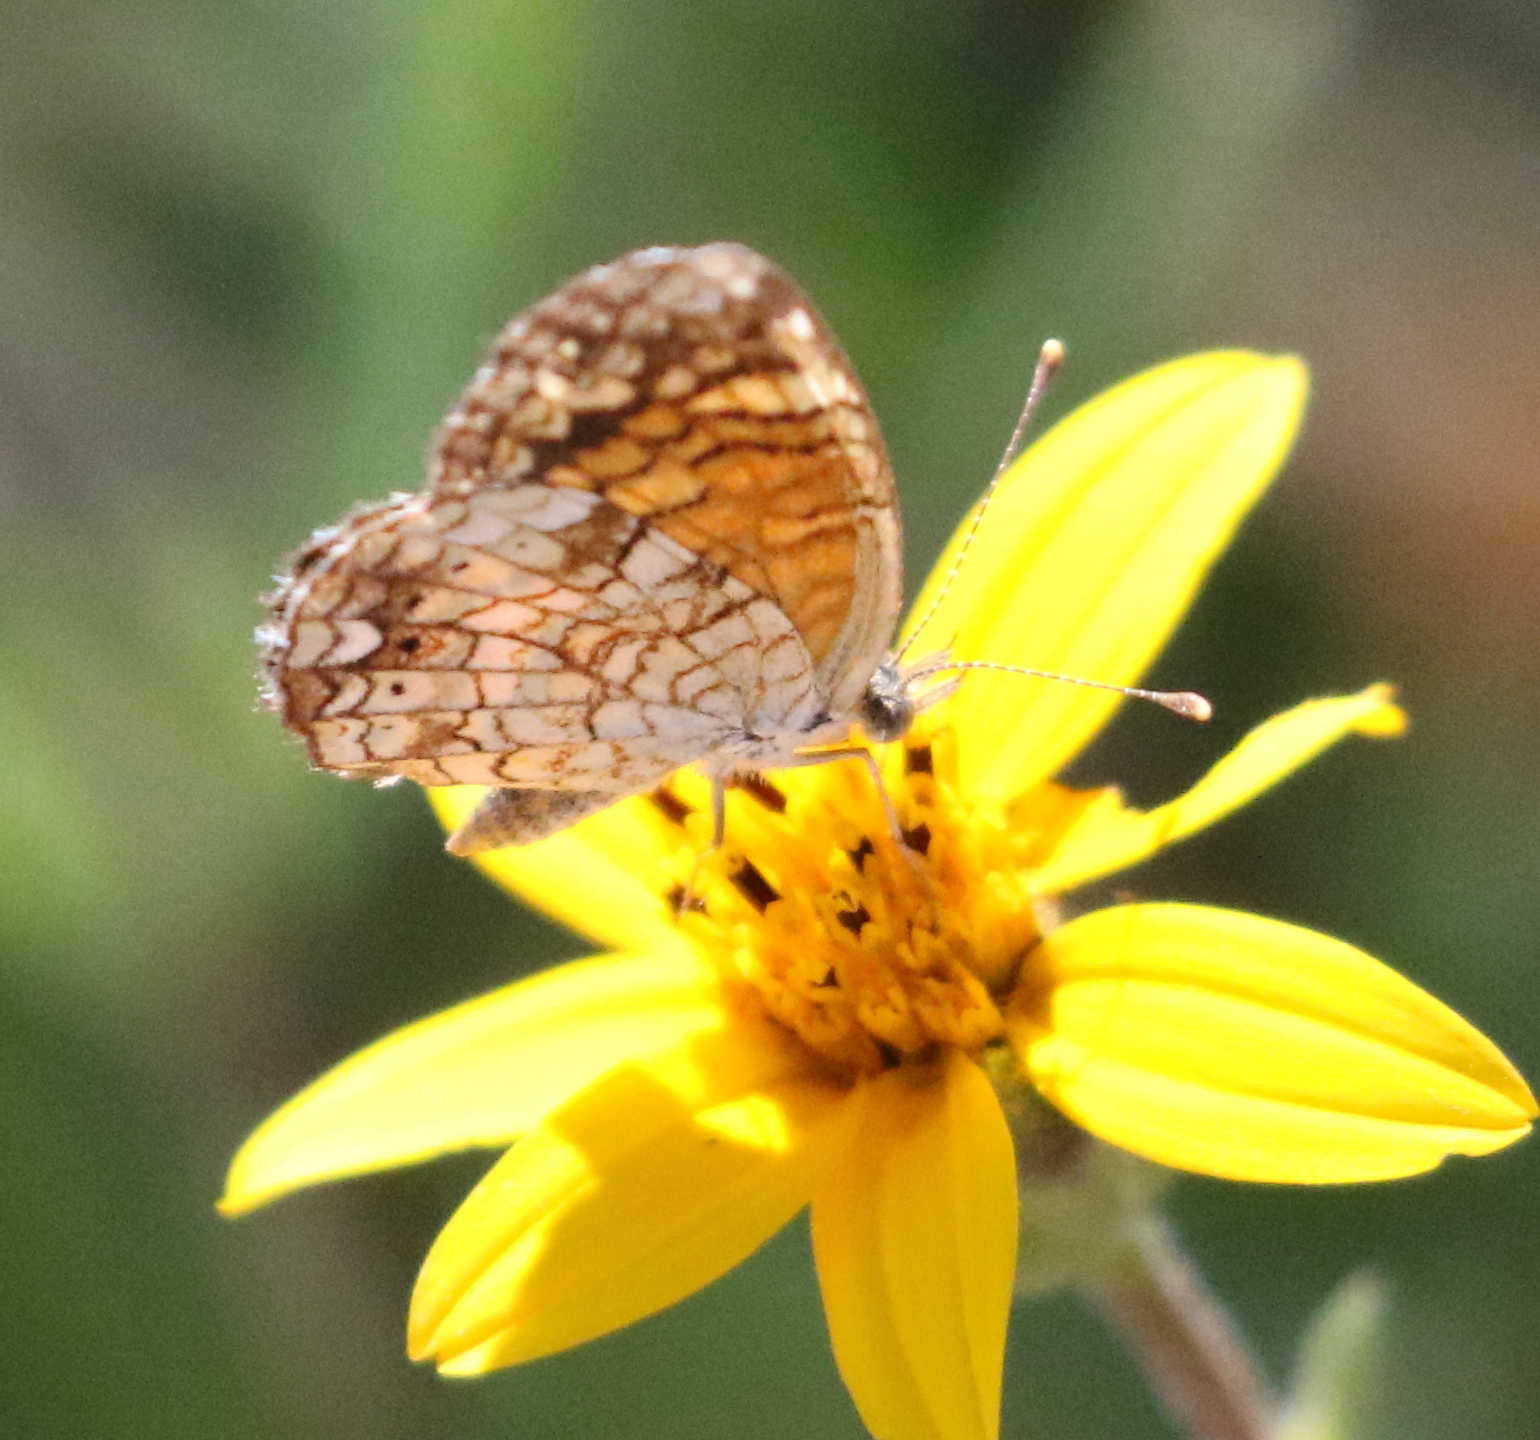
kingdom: Animalia
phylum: Arthropoda
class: Insecta
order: Lepidoptera
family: Nymphalidae
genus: Phyciodes
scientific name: Phyciodes vesta
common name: Vesta crescent
